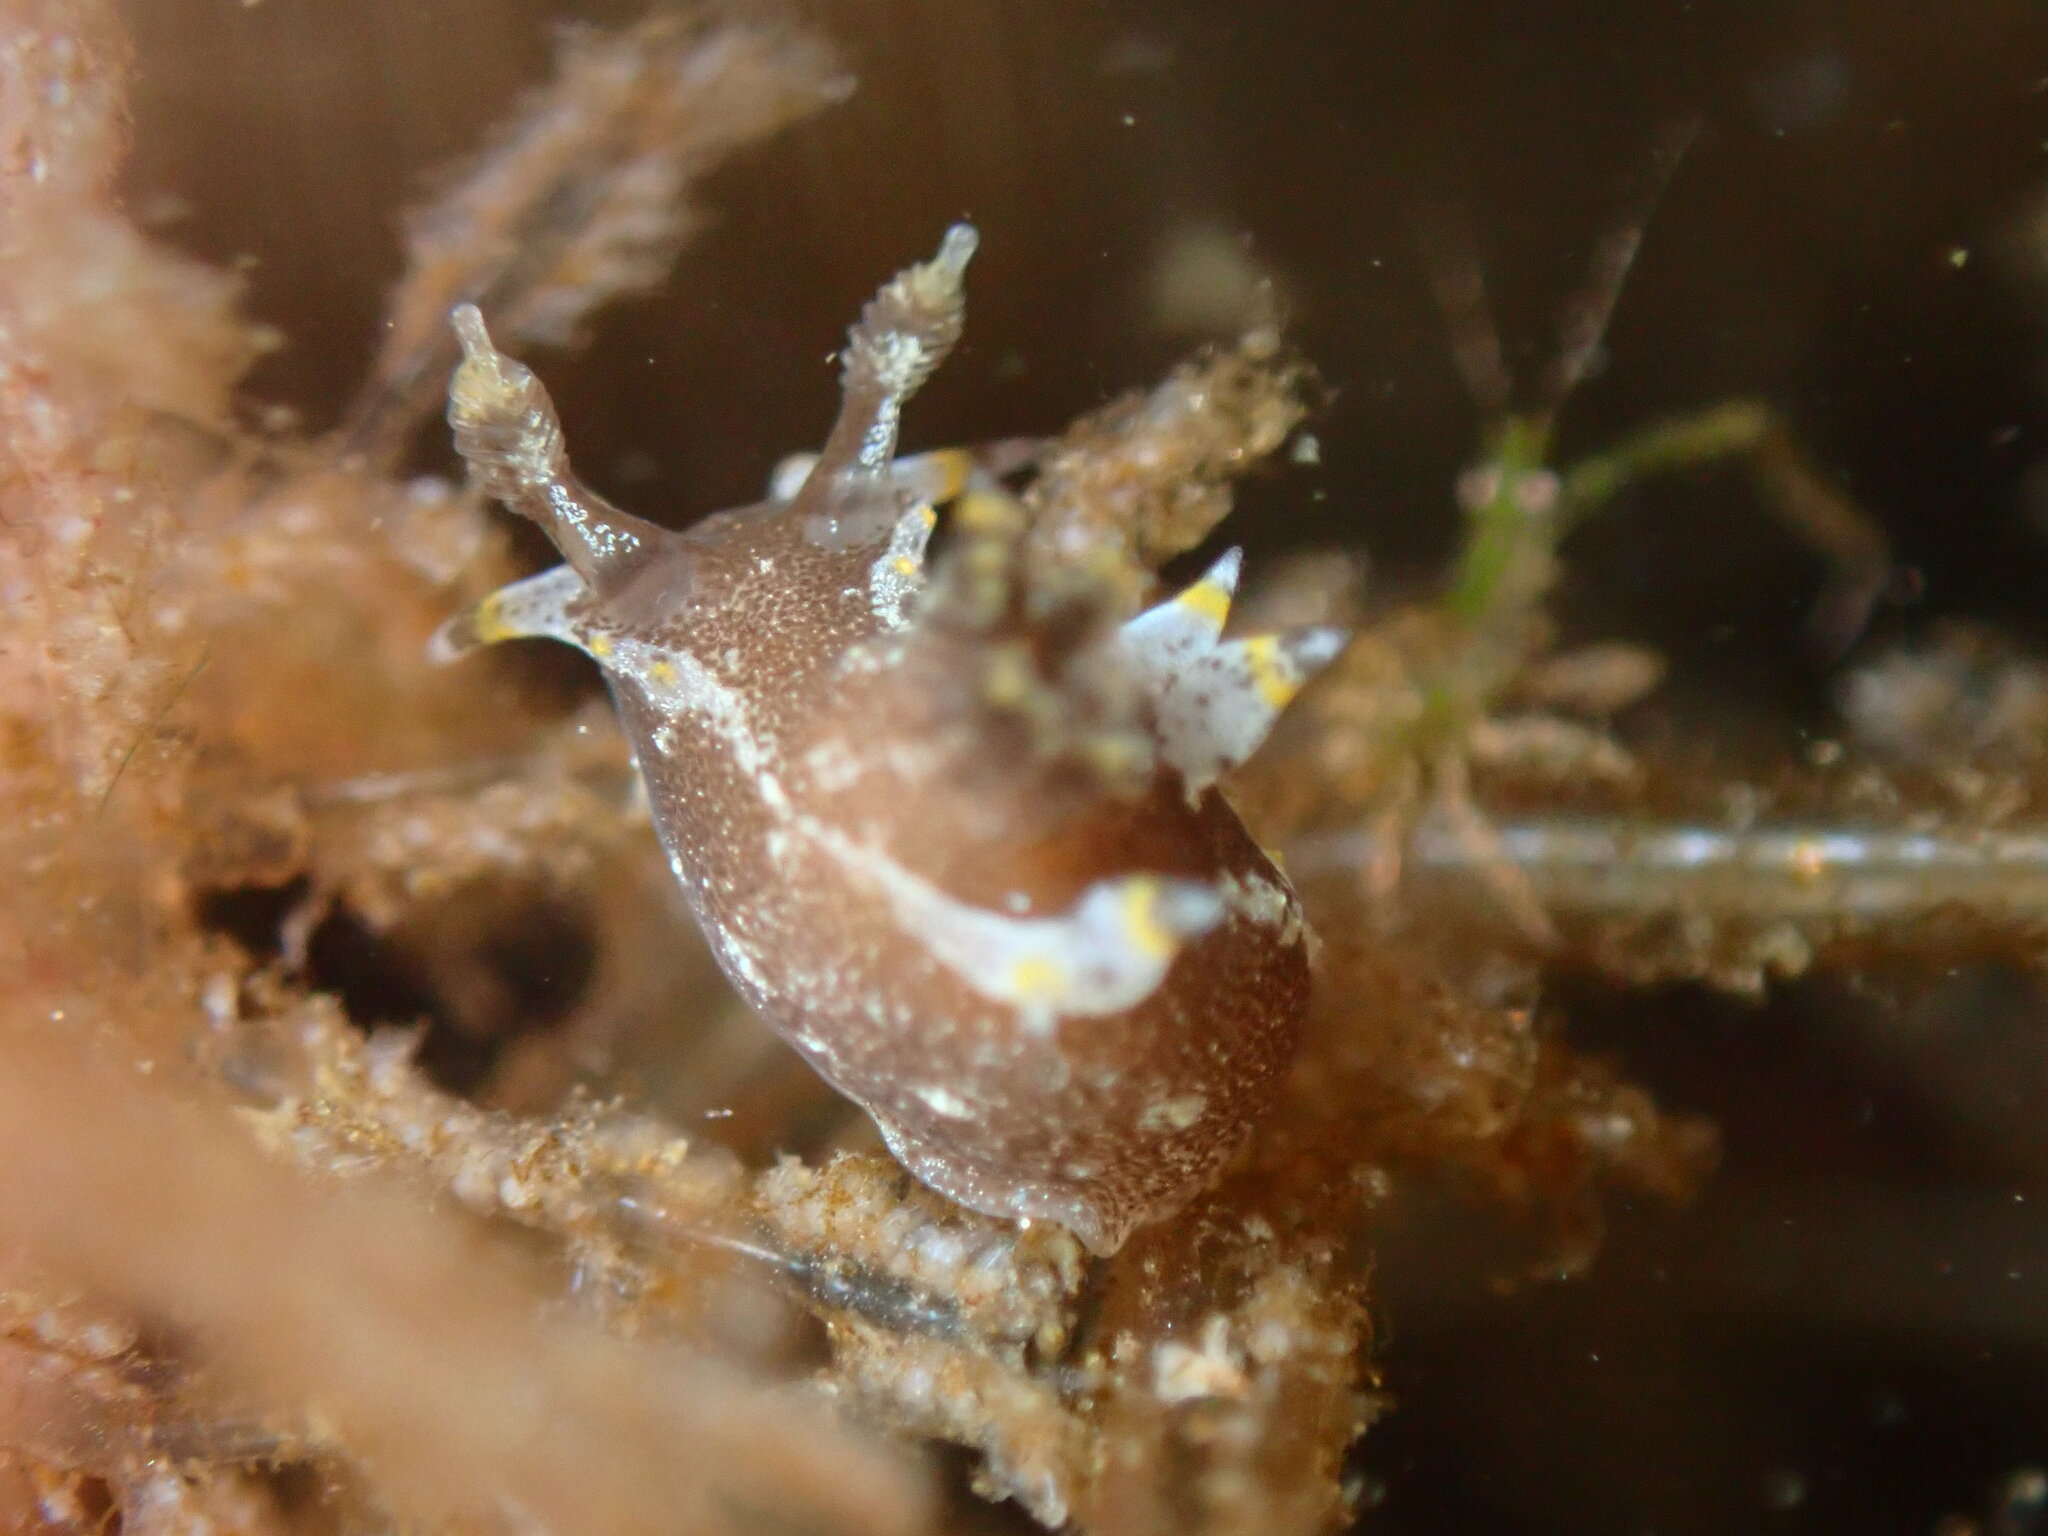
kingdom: Animalia
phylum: Mollusca
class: Gastropoda
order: Nudibranchia
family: Polyceridae
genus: Polycera
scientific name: Polycera hedgpethi
